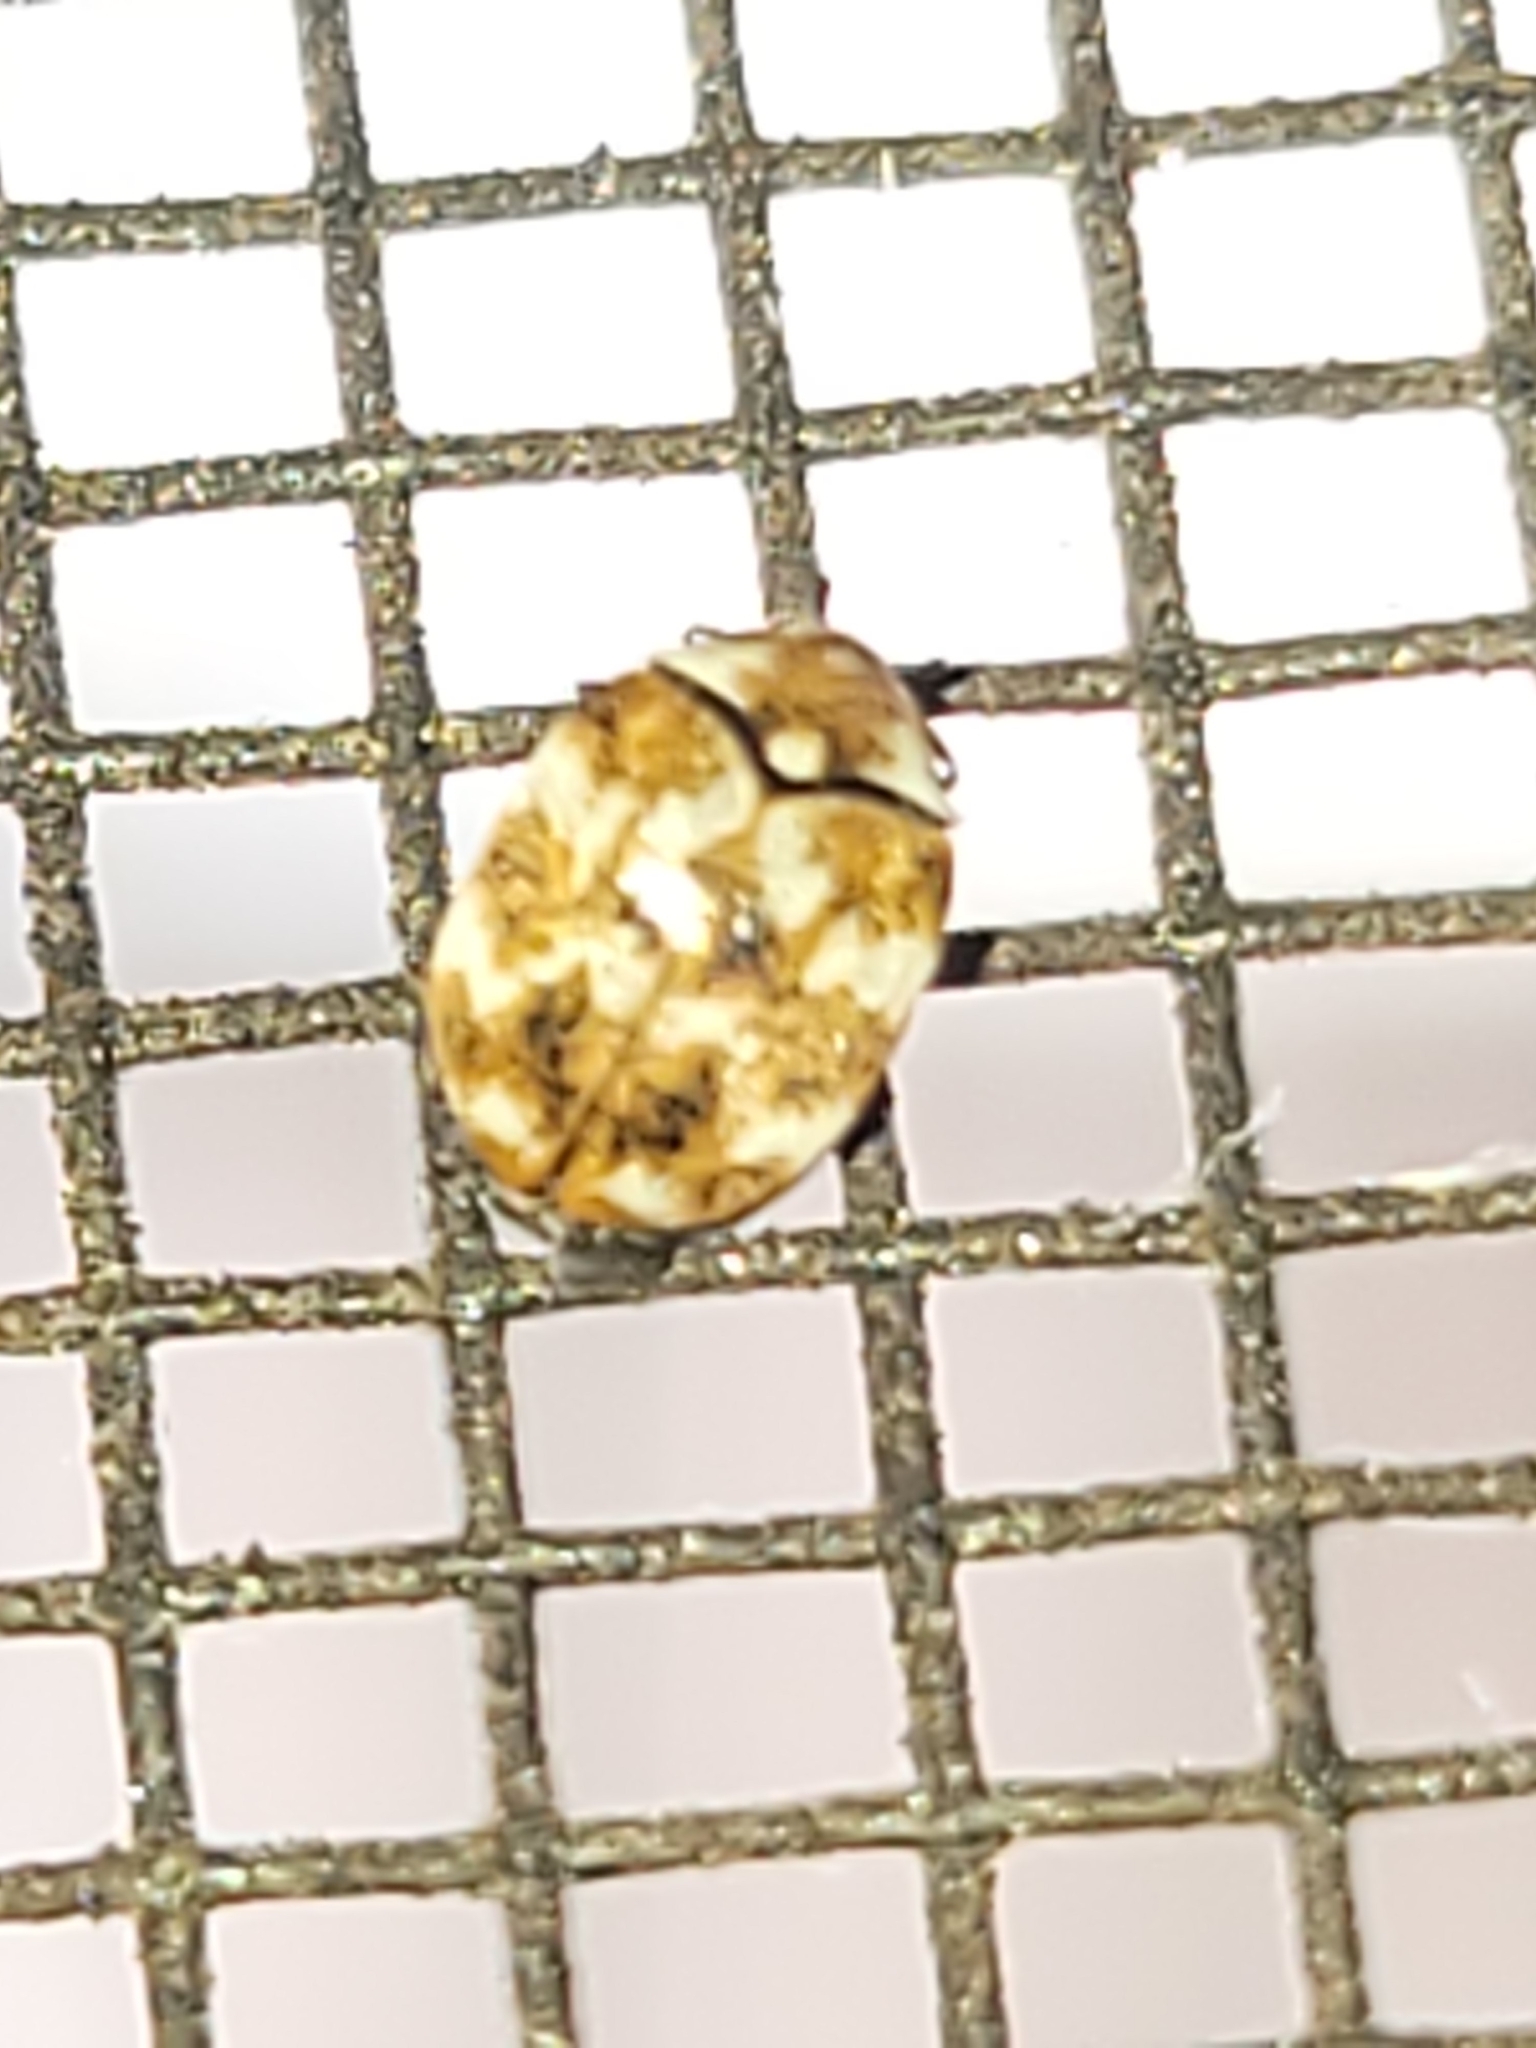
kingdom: Animalia
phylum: Arthropoda
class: Insecta
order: Coleoptera
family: Dermestidae
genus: Anthrenus
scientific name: Anthrenus verbasci
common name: Varied carpet beetle
